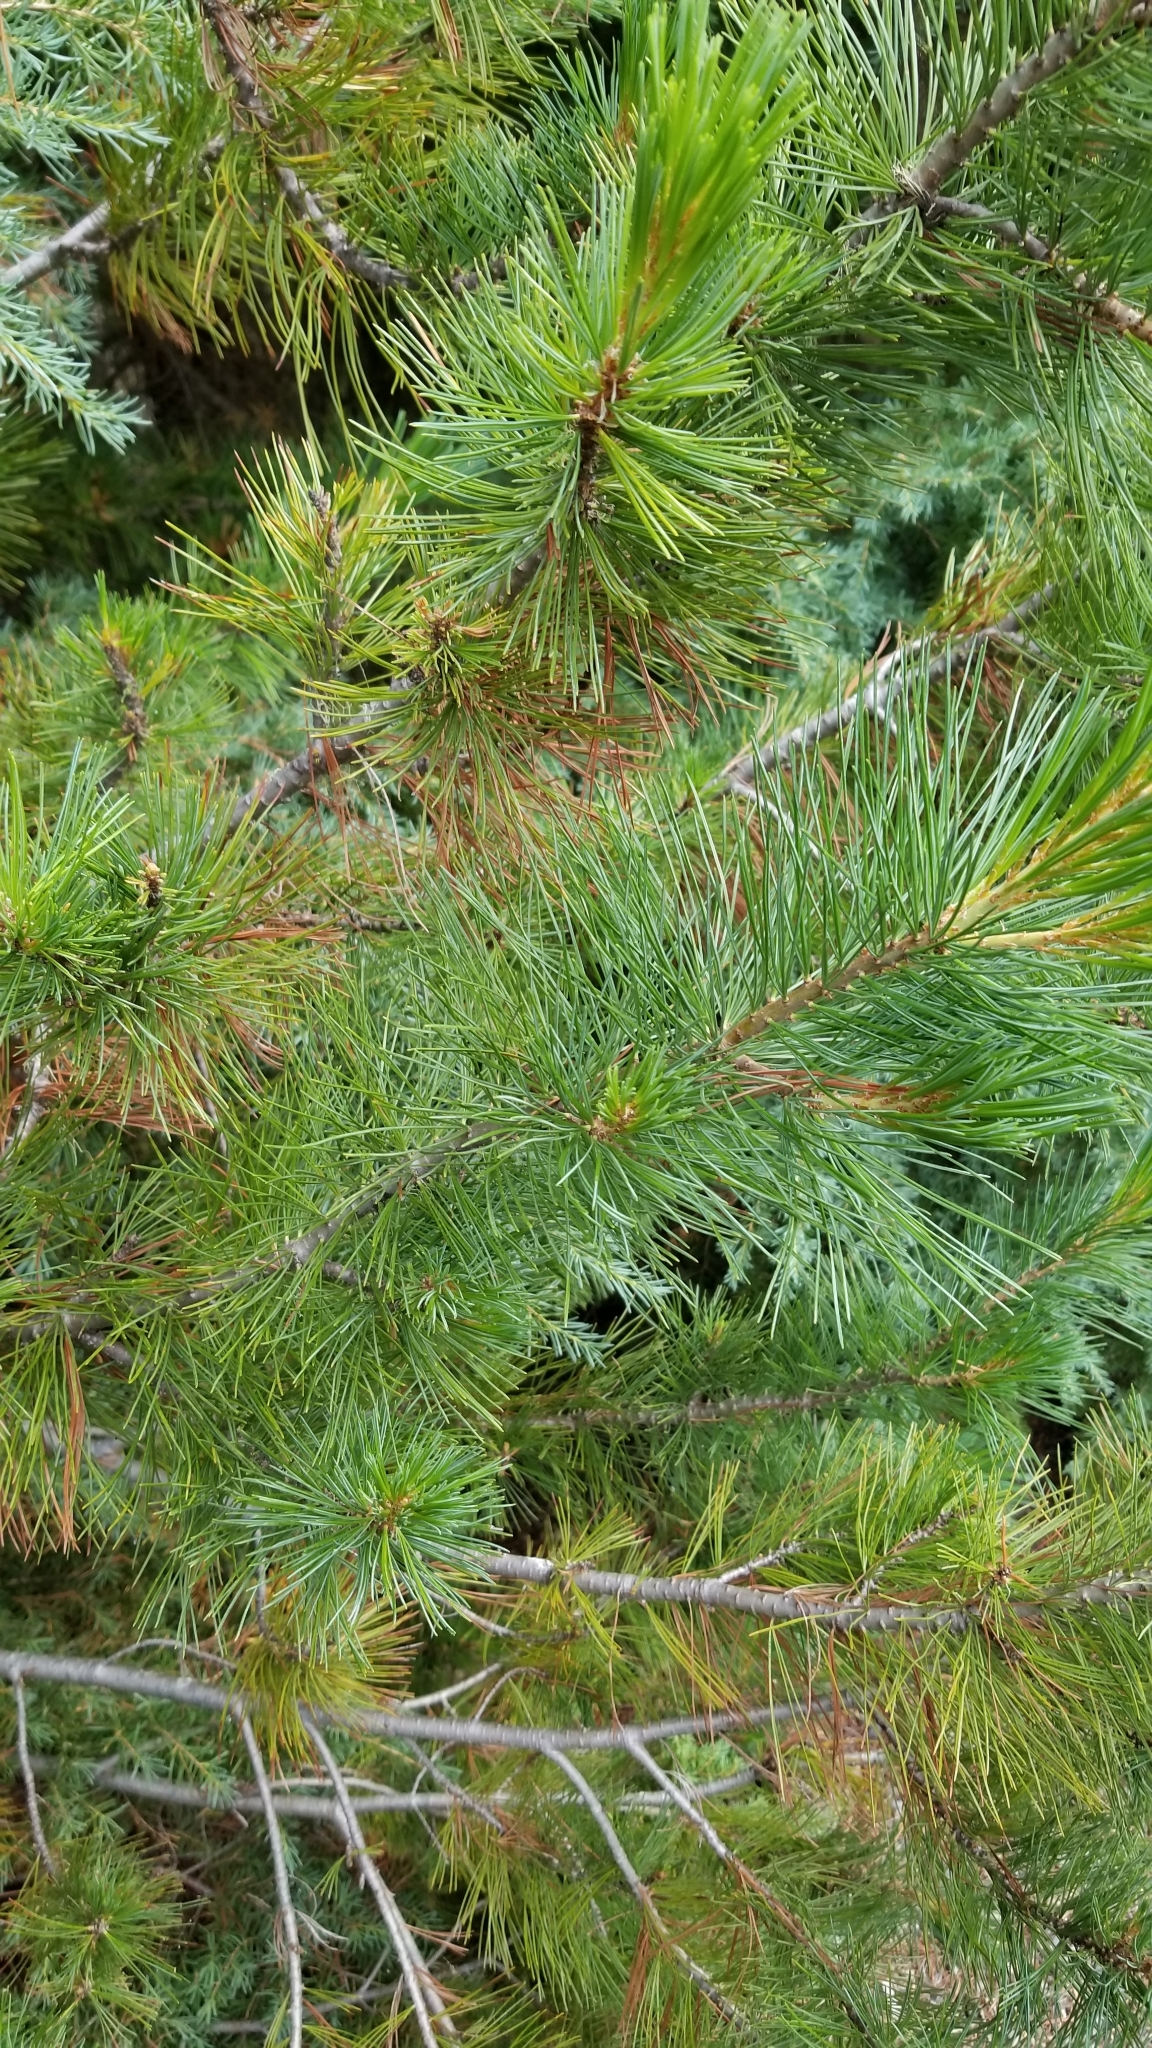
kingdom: Plantae
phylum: Tracheophyta
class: Pinopsida
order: Pinales
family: Pinaceae
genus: Pinus
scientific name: Pinus monticola
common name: Western white pine
